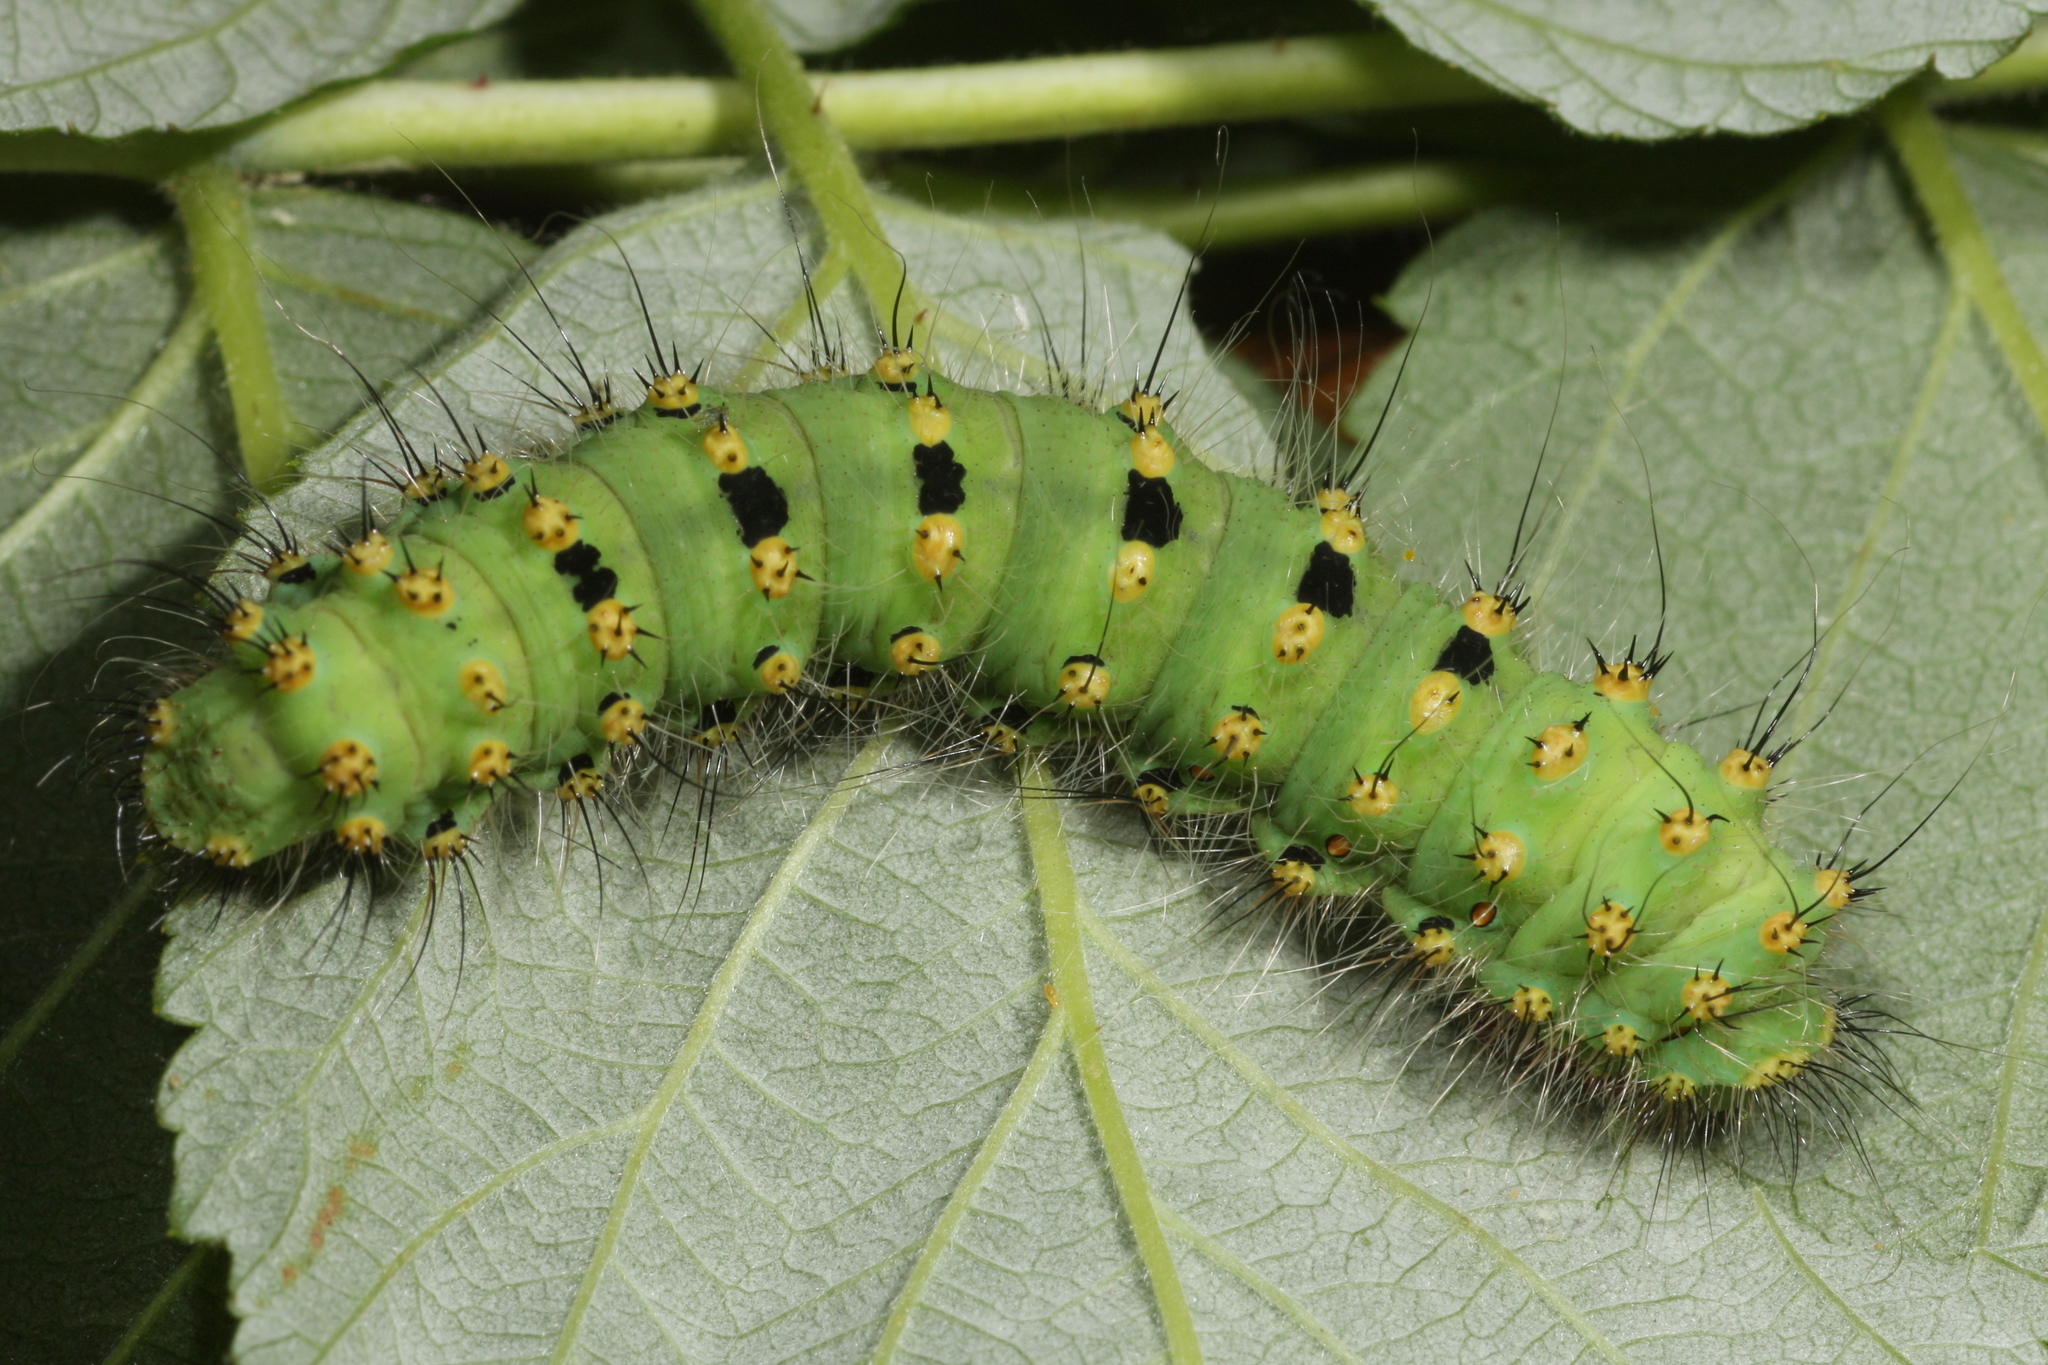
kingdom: Animalia
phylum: Arthropoda
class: Insecta
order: Lepidoptera
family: Saturniidae
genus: Saturnia
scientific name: Saturnia pavoniella
